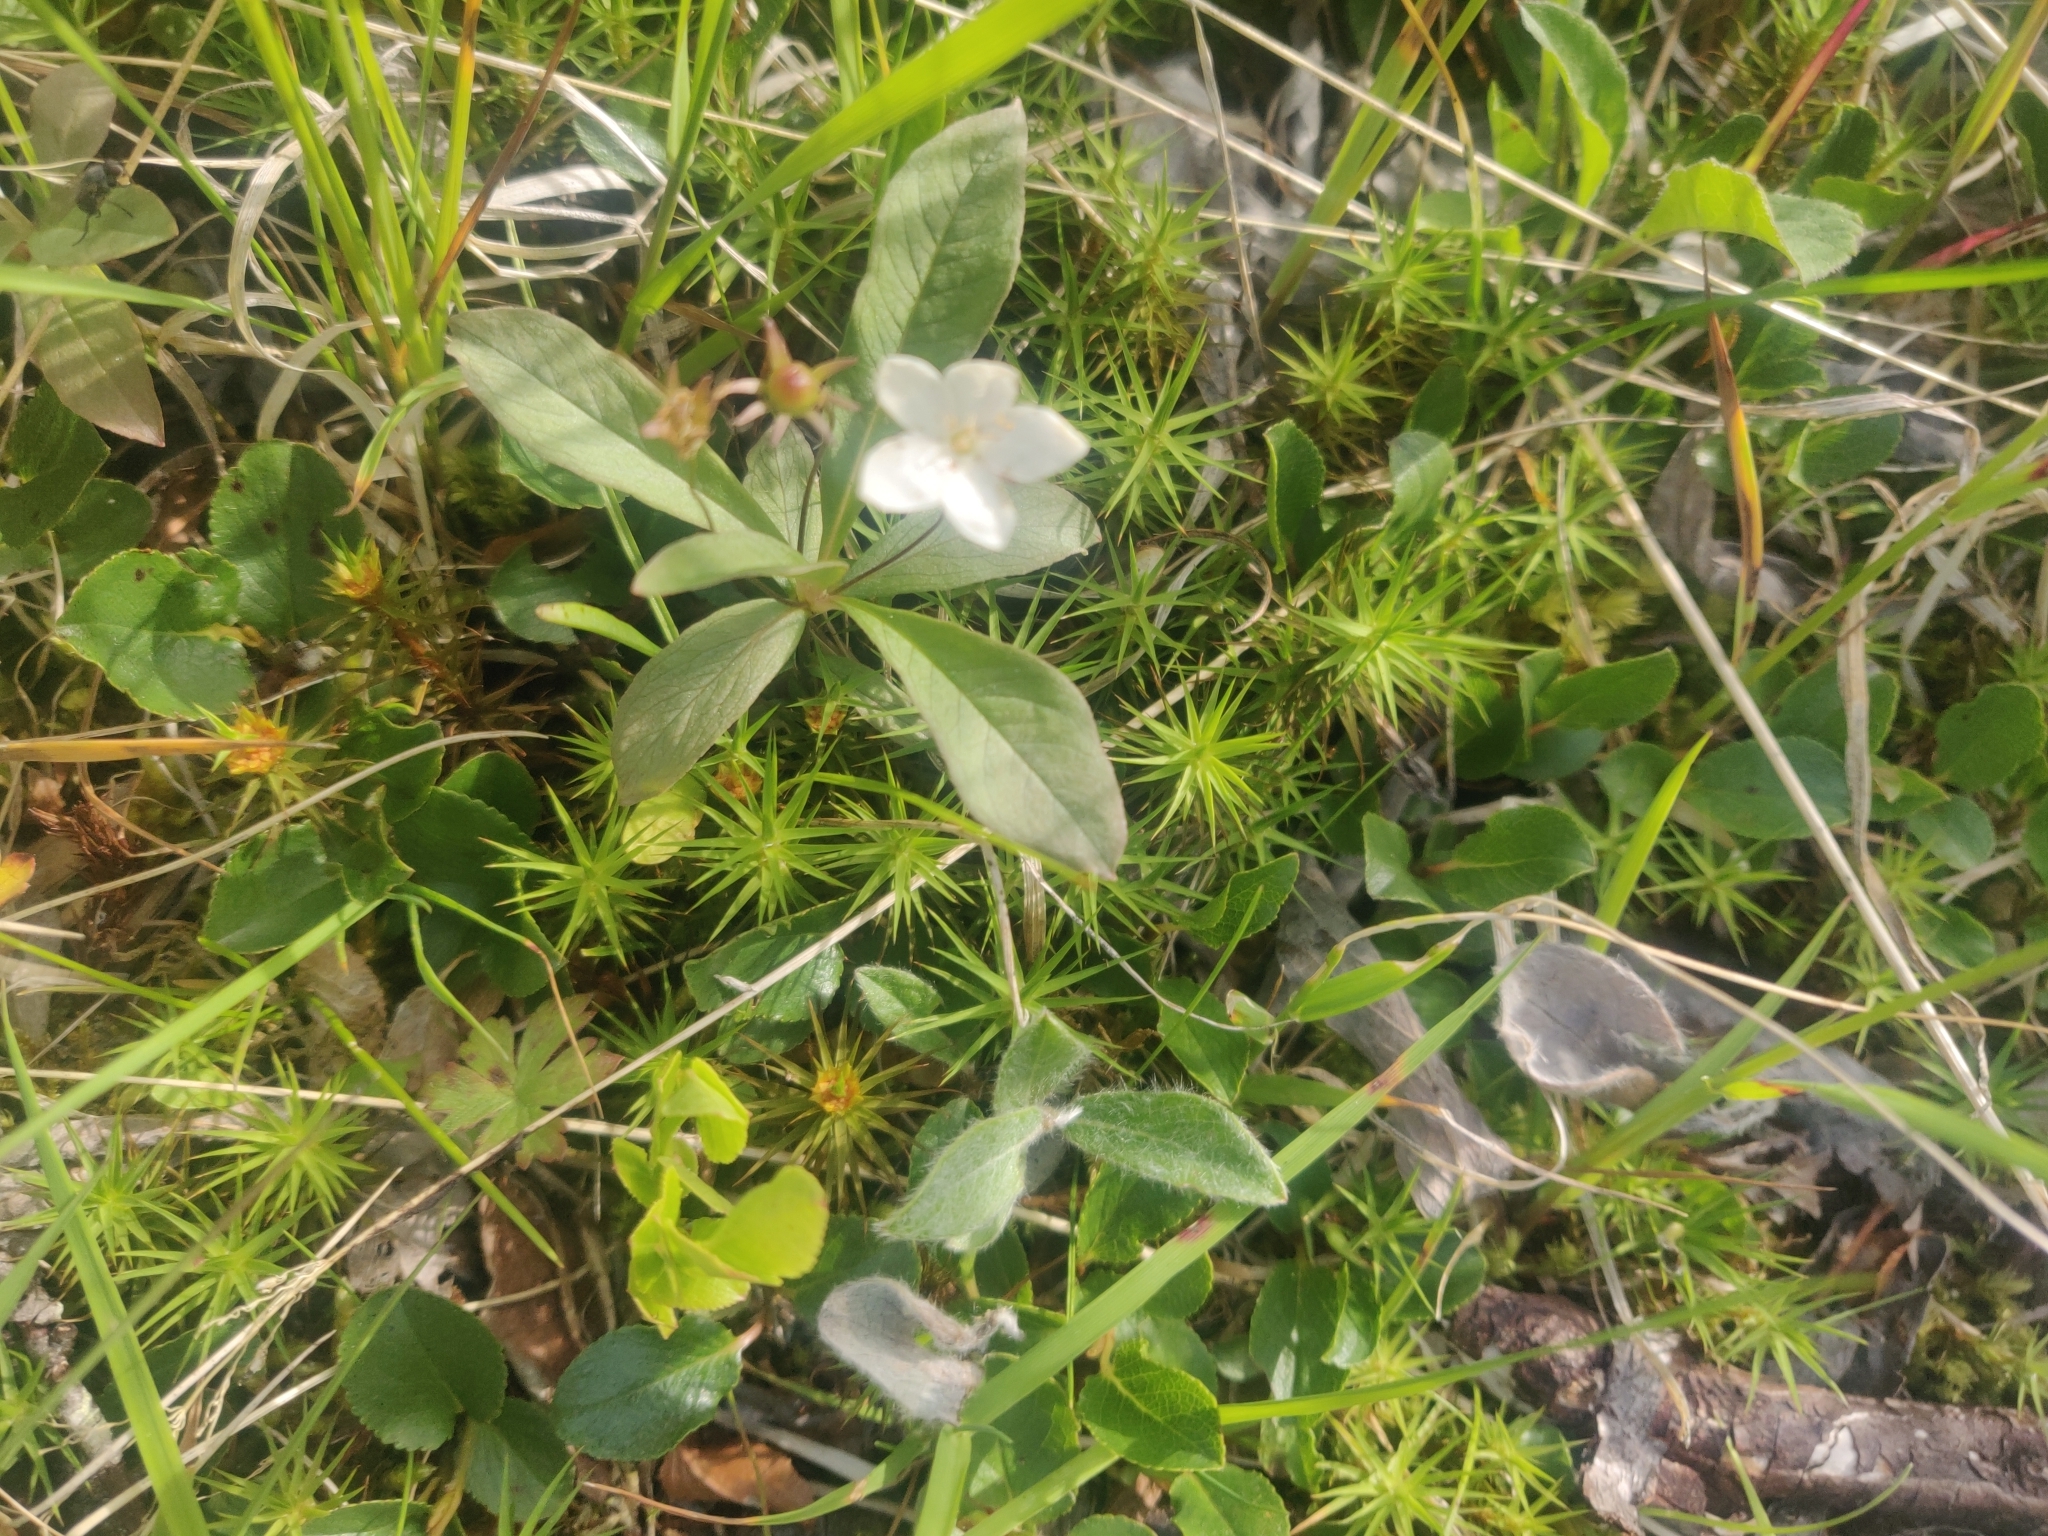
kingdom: Plantae
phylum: Tracheophyta
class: Magnoliopsida
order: Ericales
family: Primulaceae
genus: Lysimachia
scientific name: Lysimachia europaea
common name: Arctic starflower
